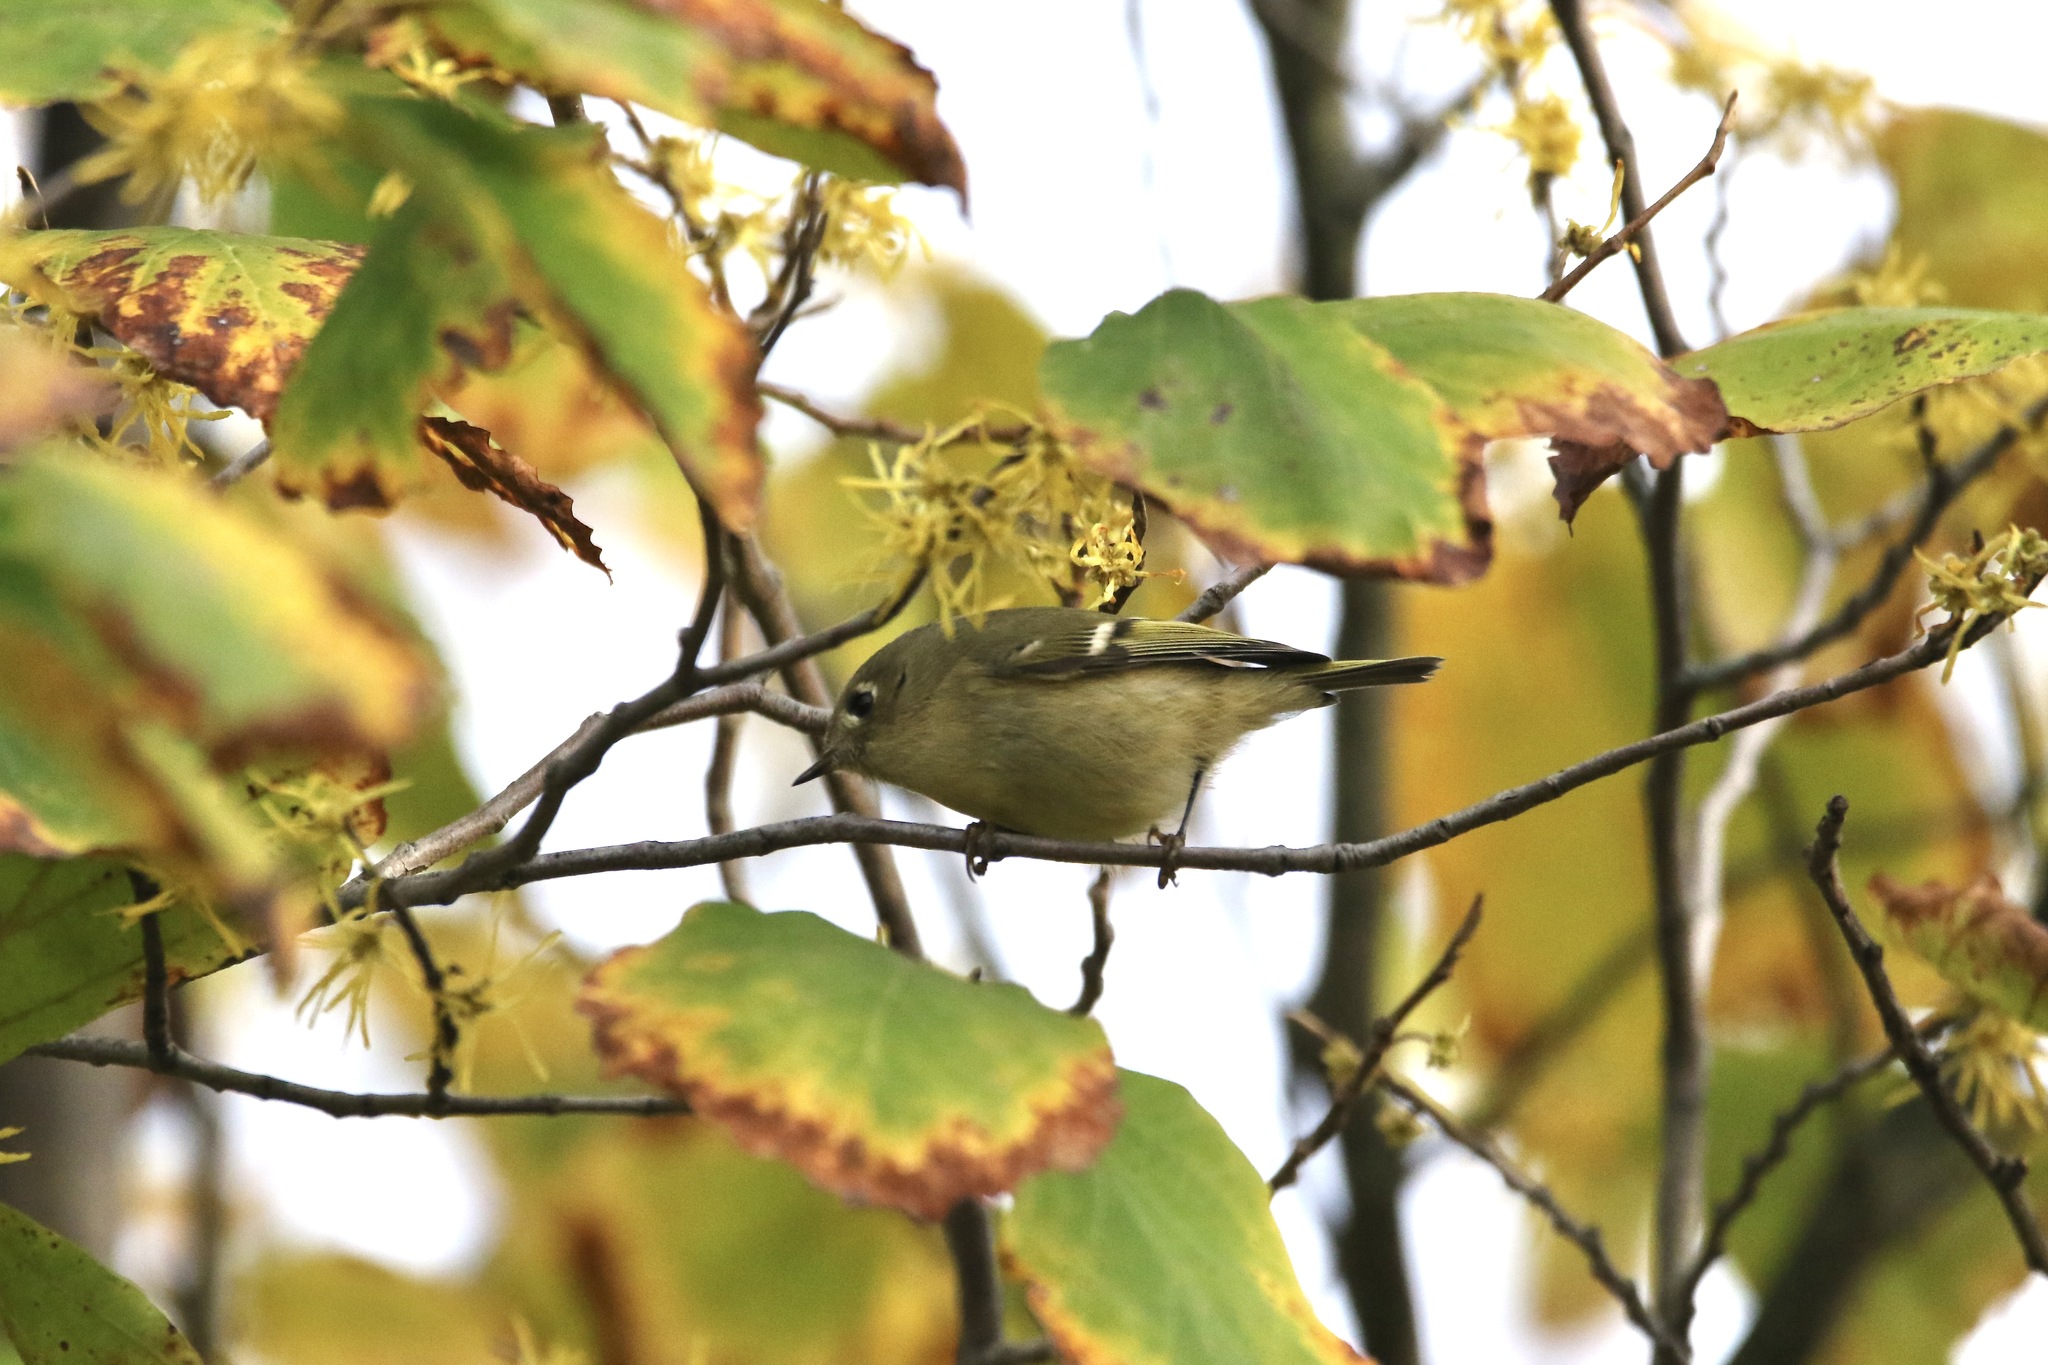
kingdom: Animalia
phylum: Chordata
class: Aves
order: Passeriformes
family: Regulidae
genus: Regulus
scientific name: Regulus calendula
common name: Ruby-crowned kinglet
